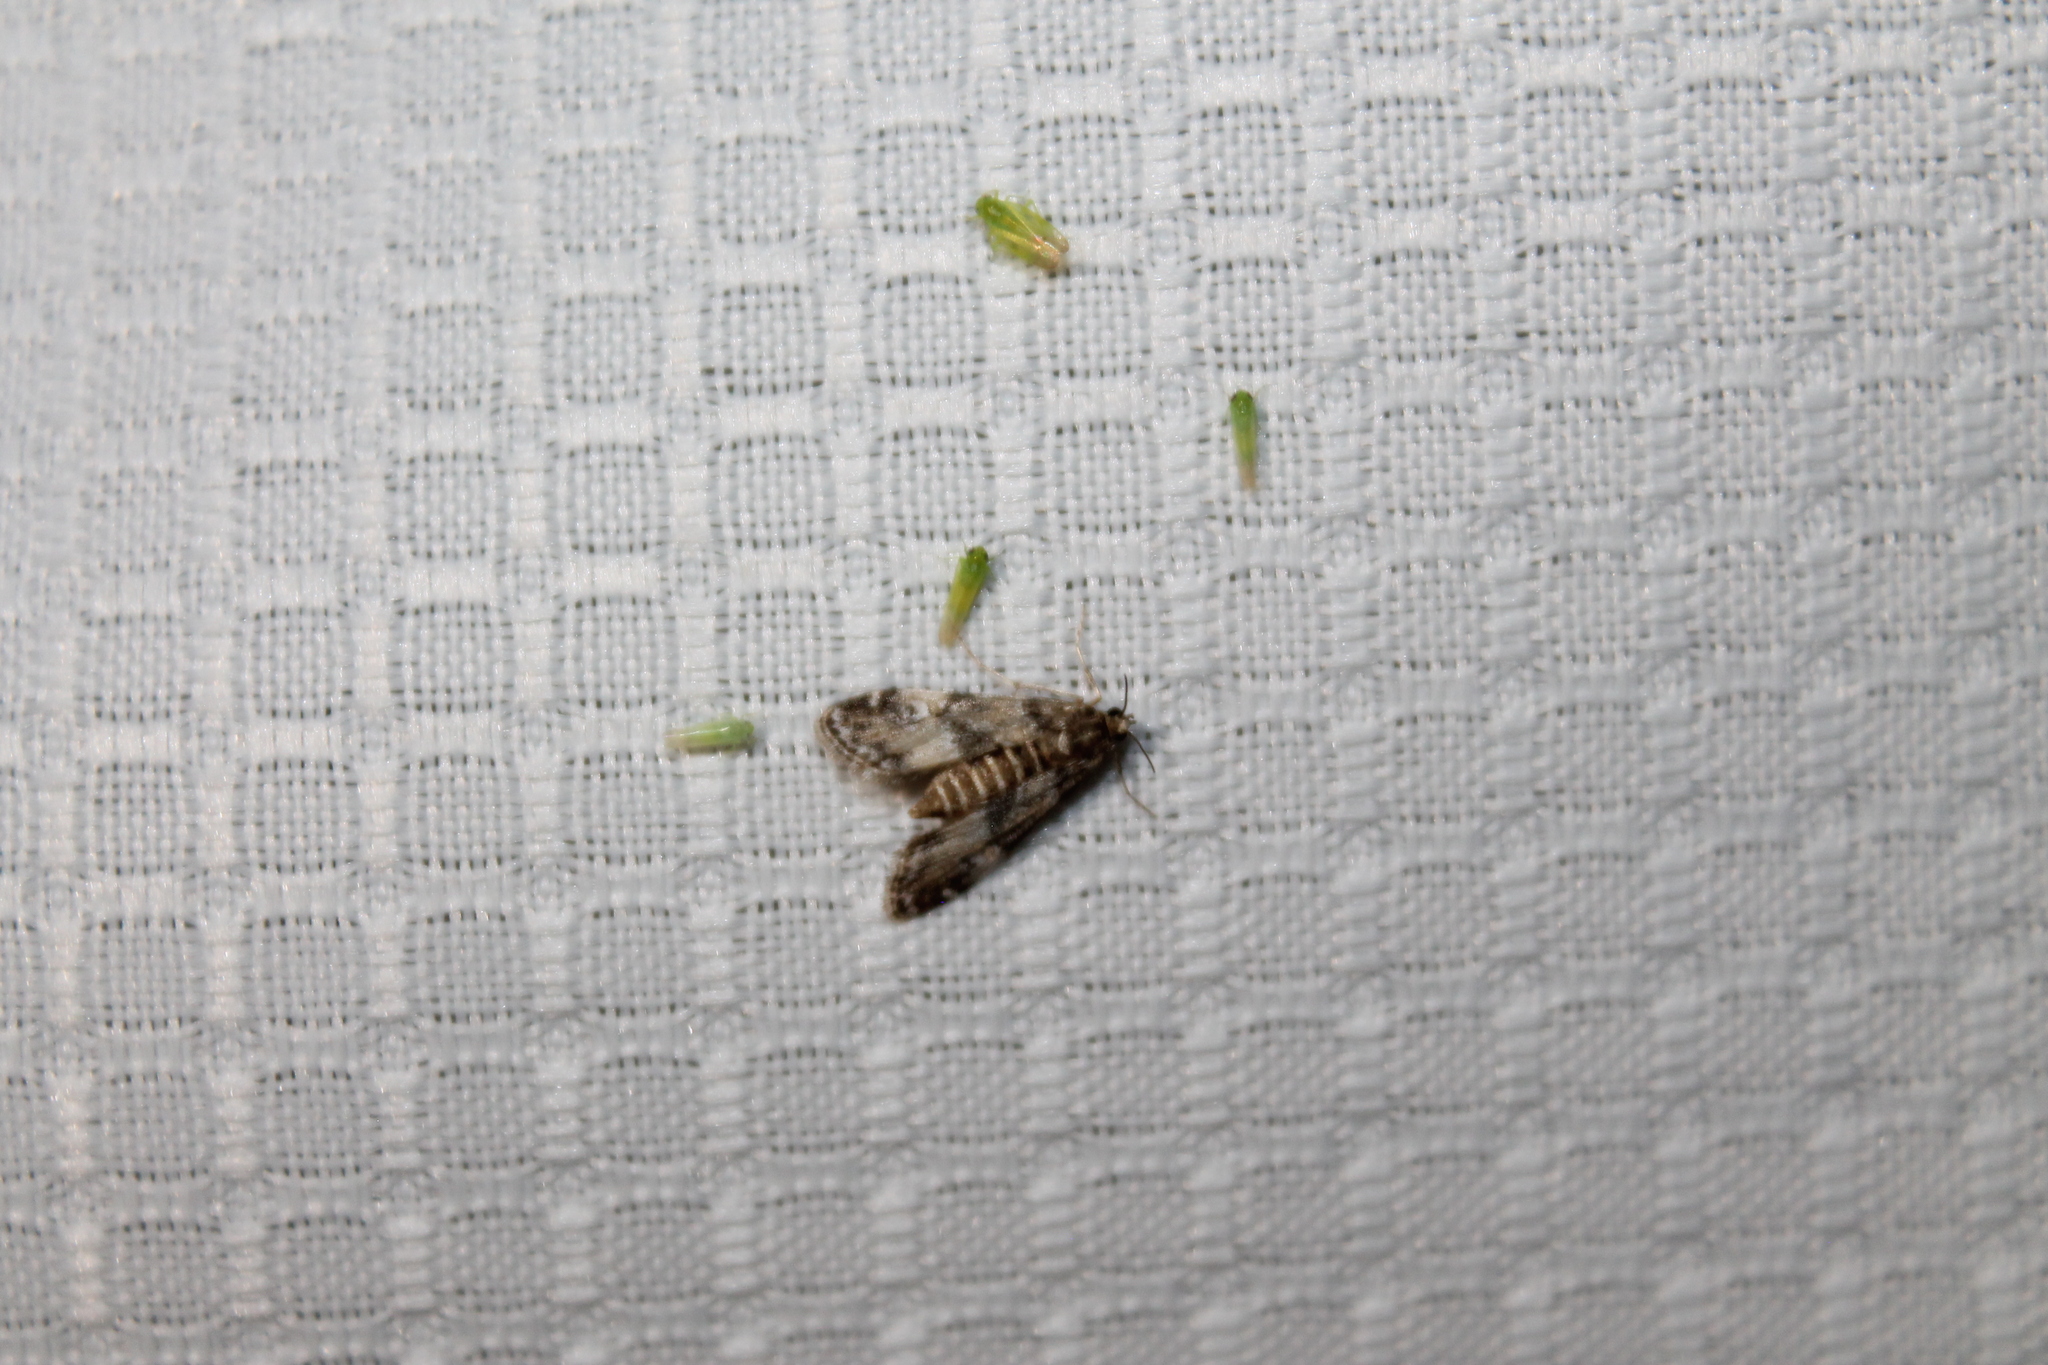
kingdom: Animalia
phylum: Arthropoda
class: Insecta
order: Lepidoptera
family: Crambidae
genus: Elophila
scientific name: Elophila obliteralis
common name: Waterlily leafcutter moth
